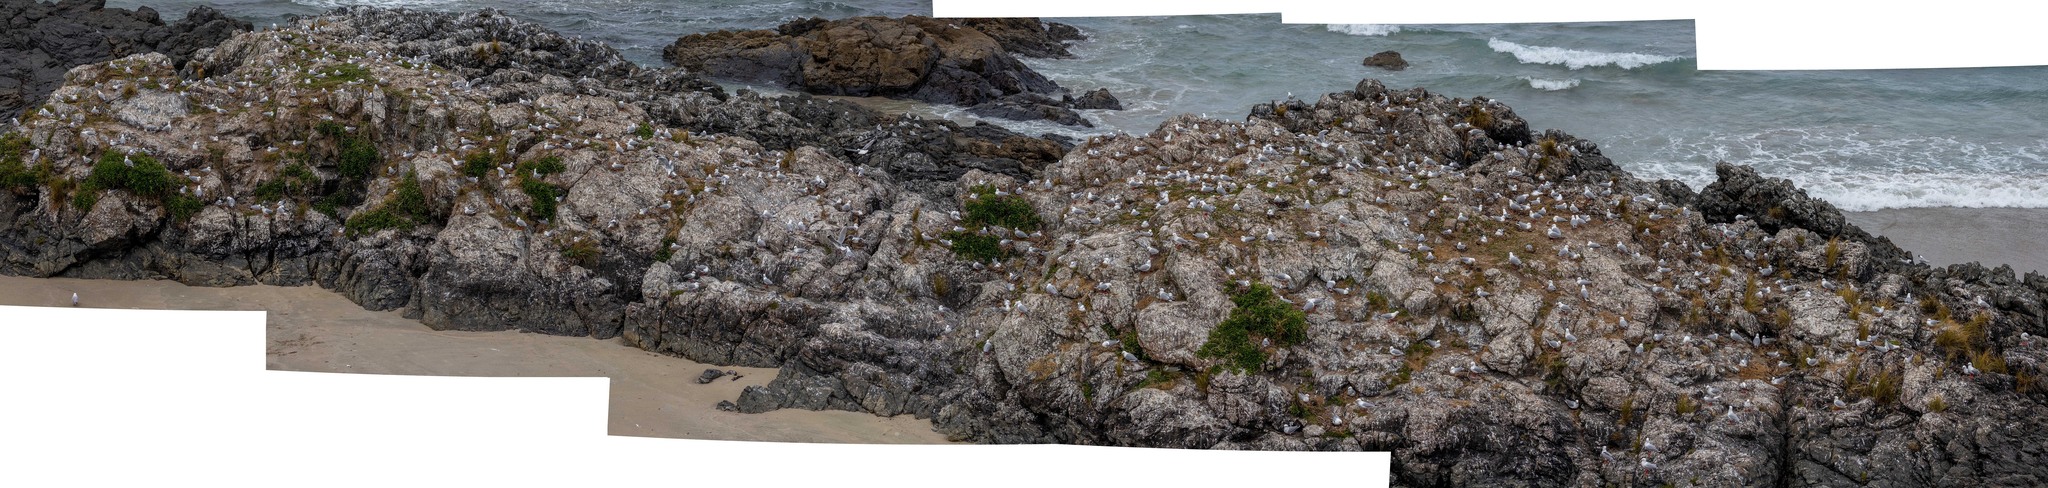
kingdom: Animalia
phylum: Chordata
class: Aves
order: Charadriiformes
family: Laridae
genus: Chroicocephalus
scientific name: Chroicocephalus novaehollandiae
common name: Silver gull
